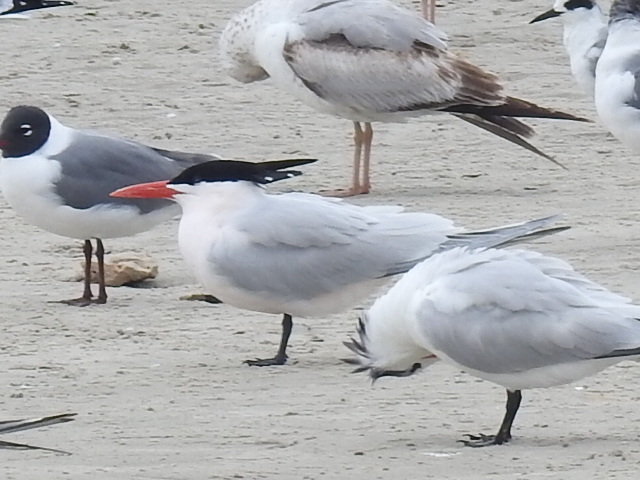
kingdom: Animalia
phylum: Chordata
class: Aves
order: Charadriiformes
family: Laridae
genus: Thalasseus
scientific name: Thalasseus maximus
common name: Royal tern
